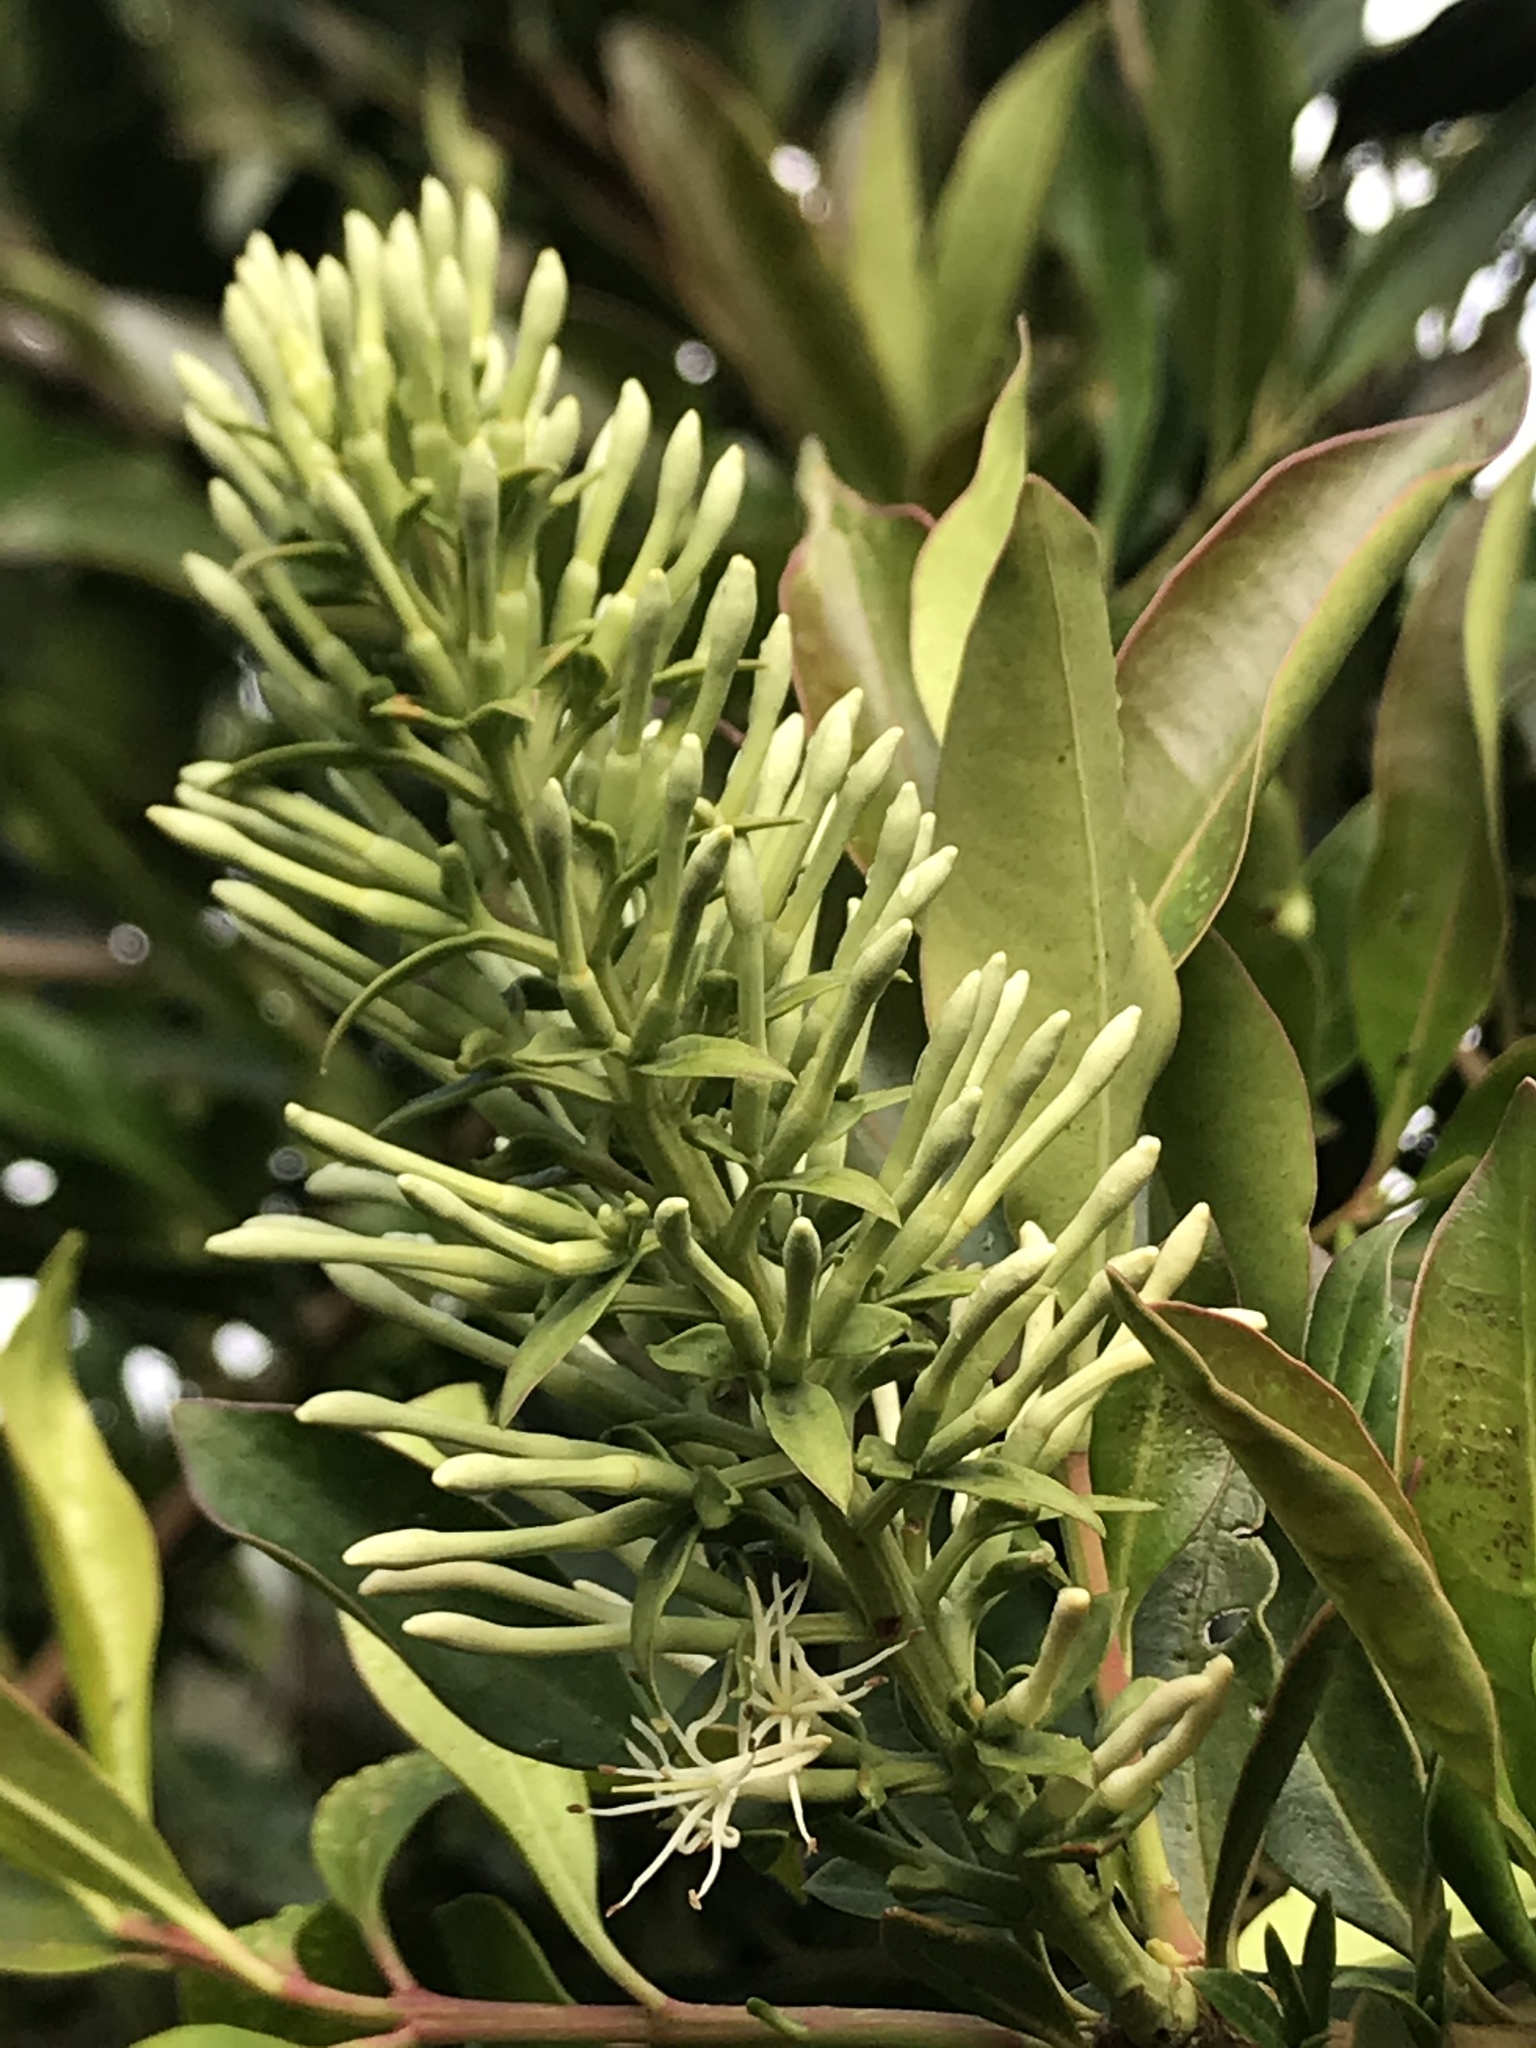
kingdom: Plantae
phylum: Tracheophyta
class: Magnoliopsida
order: Santalales
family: Loranthaceae
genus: Gaiadendron
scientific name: Gaiadendron punctatum
